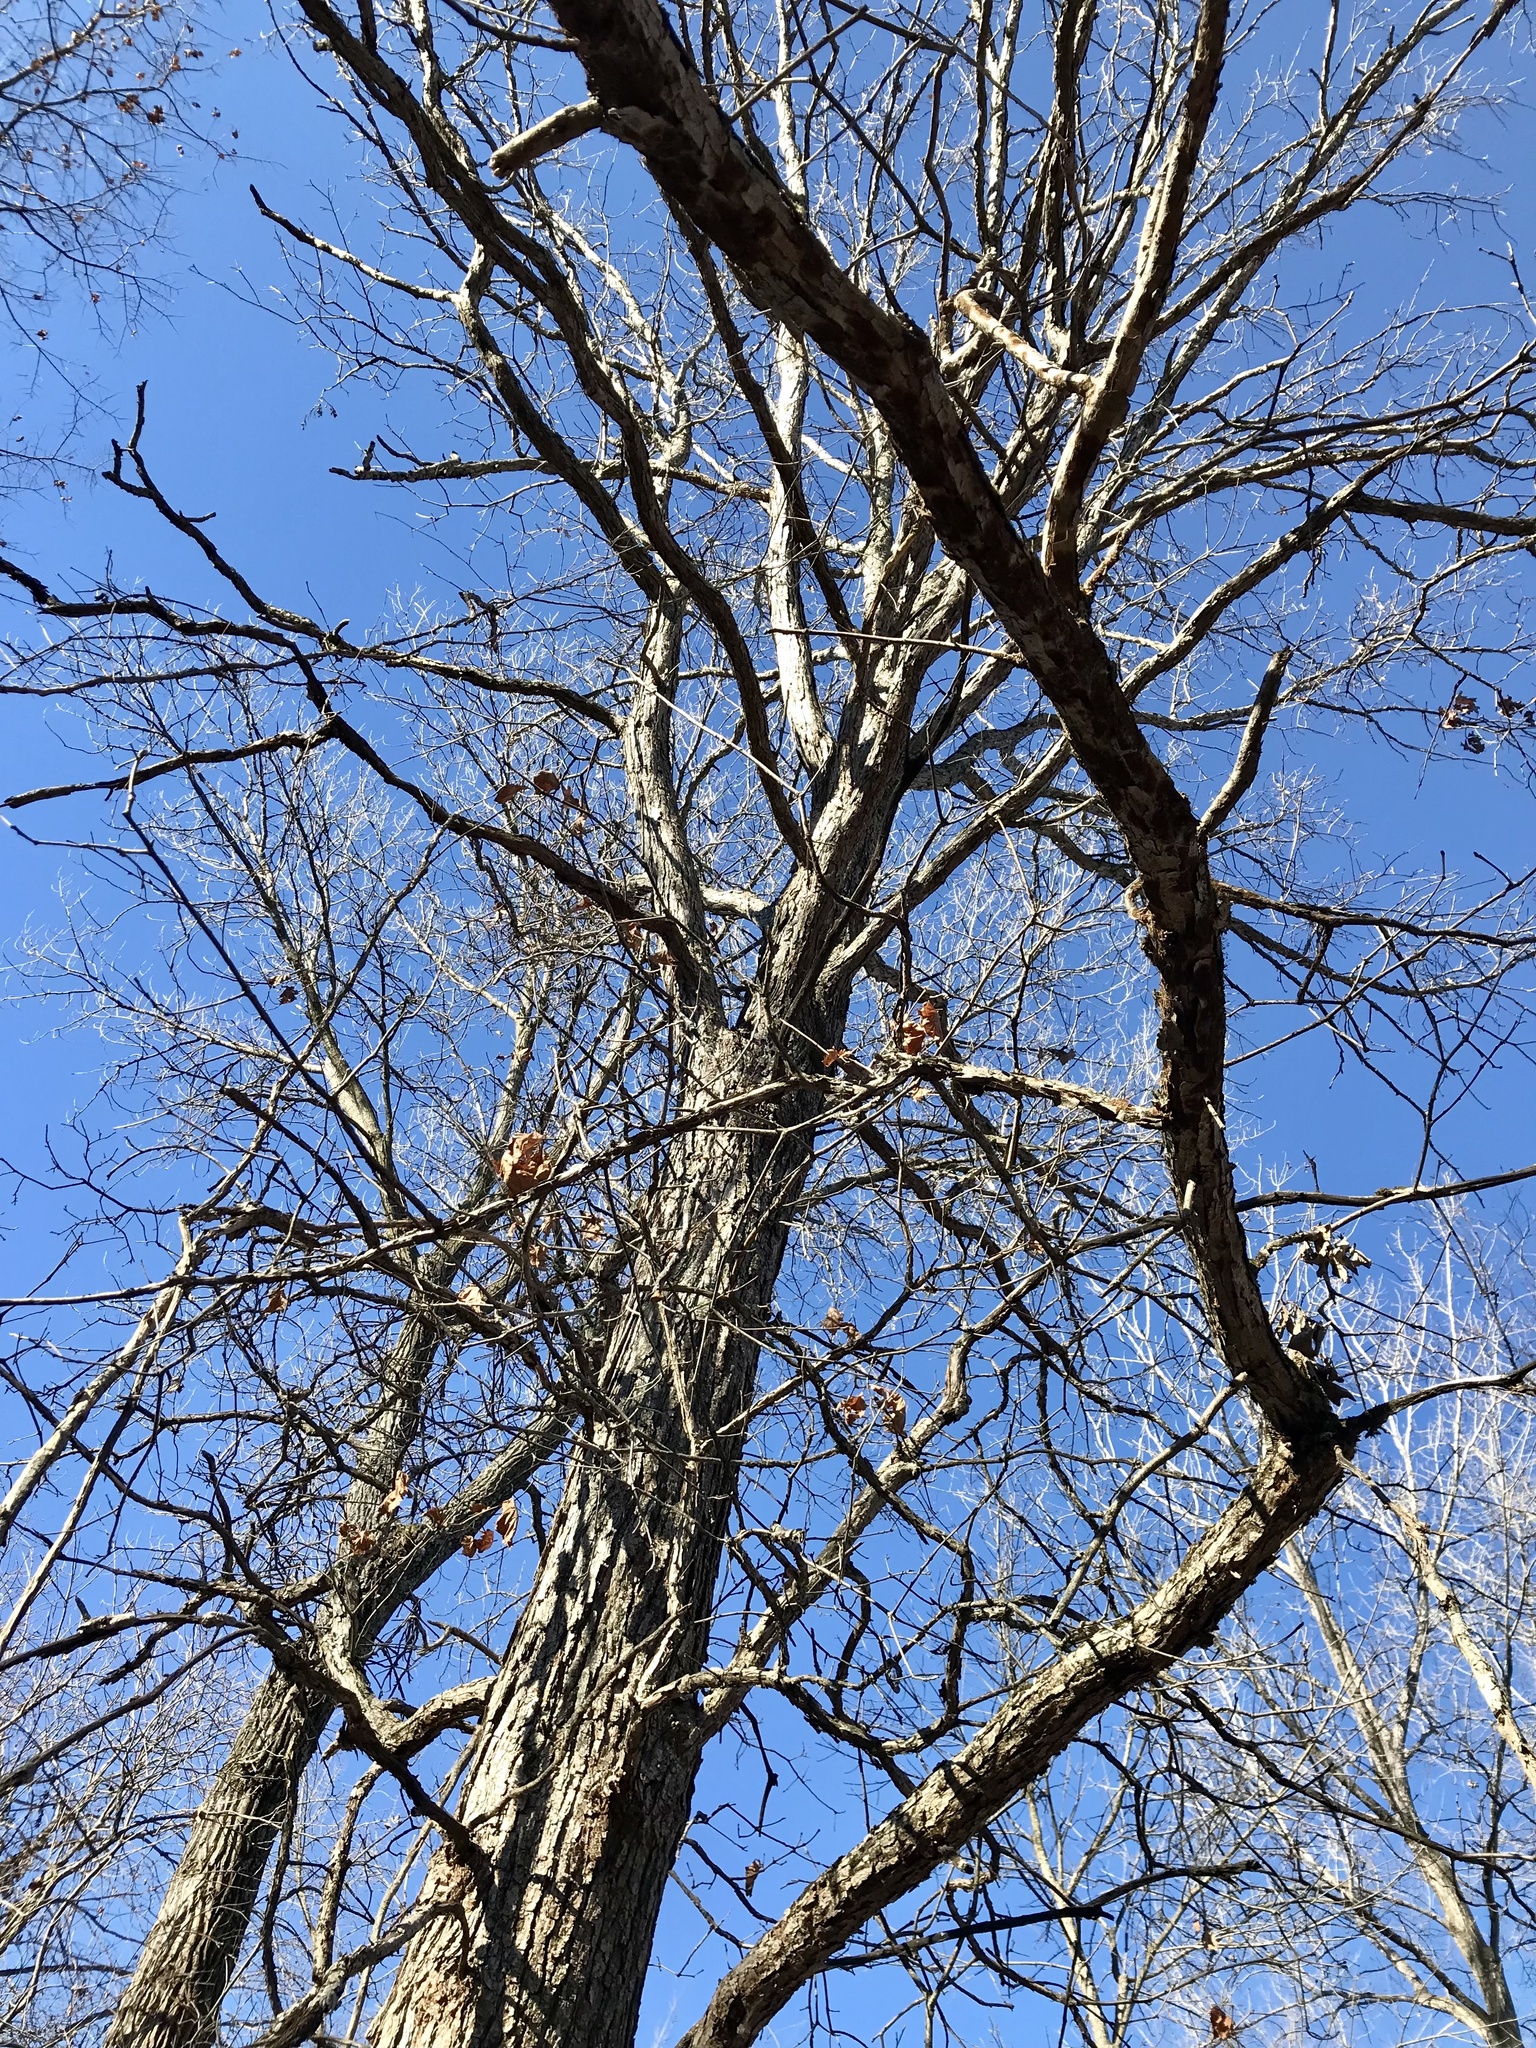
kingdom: Plantae
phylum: Tracheophyta
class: Magnoliopsida
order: Fagales
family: Fagaceae
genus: Quercus
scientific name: Quercus bicolor
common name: Swamp white oak
